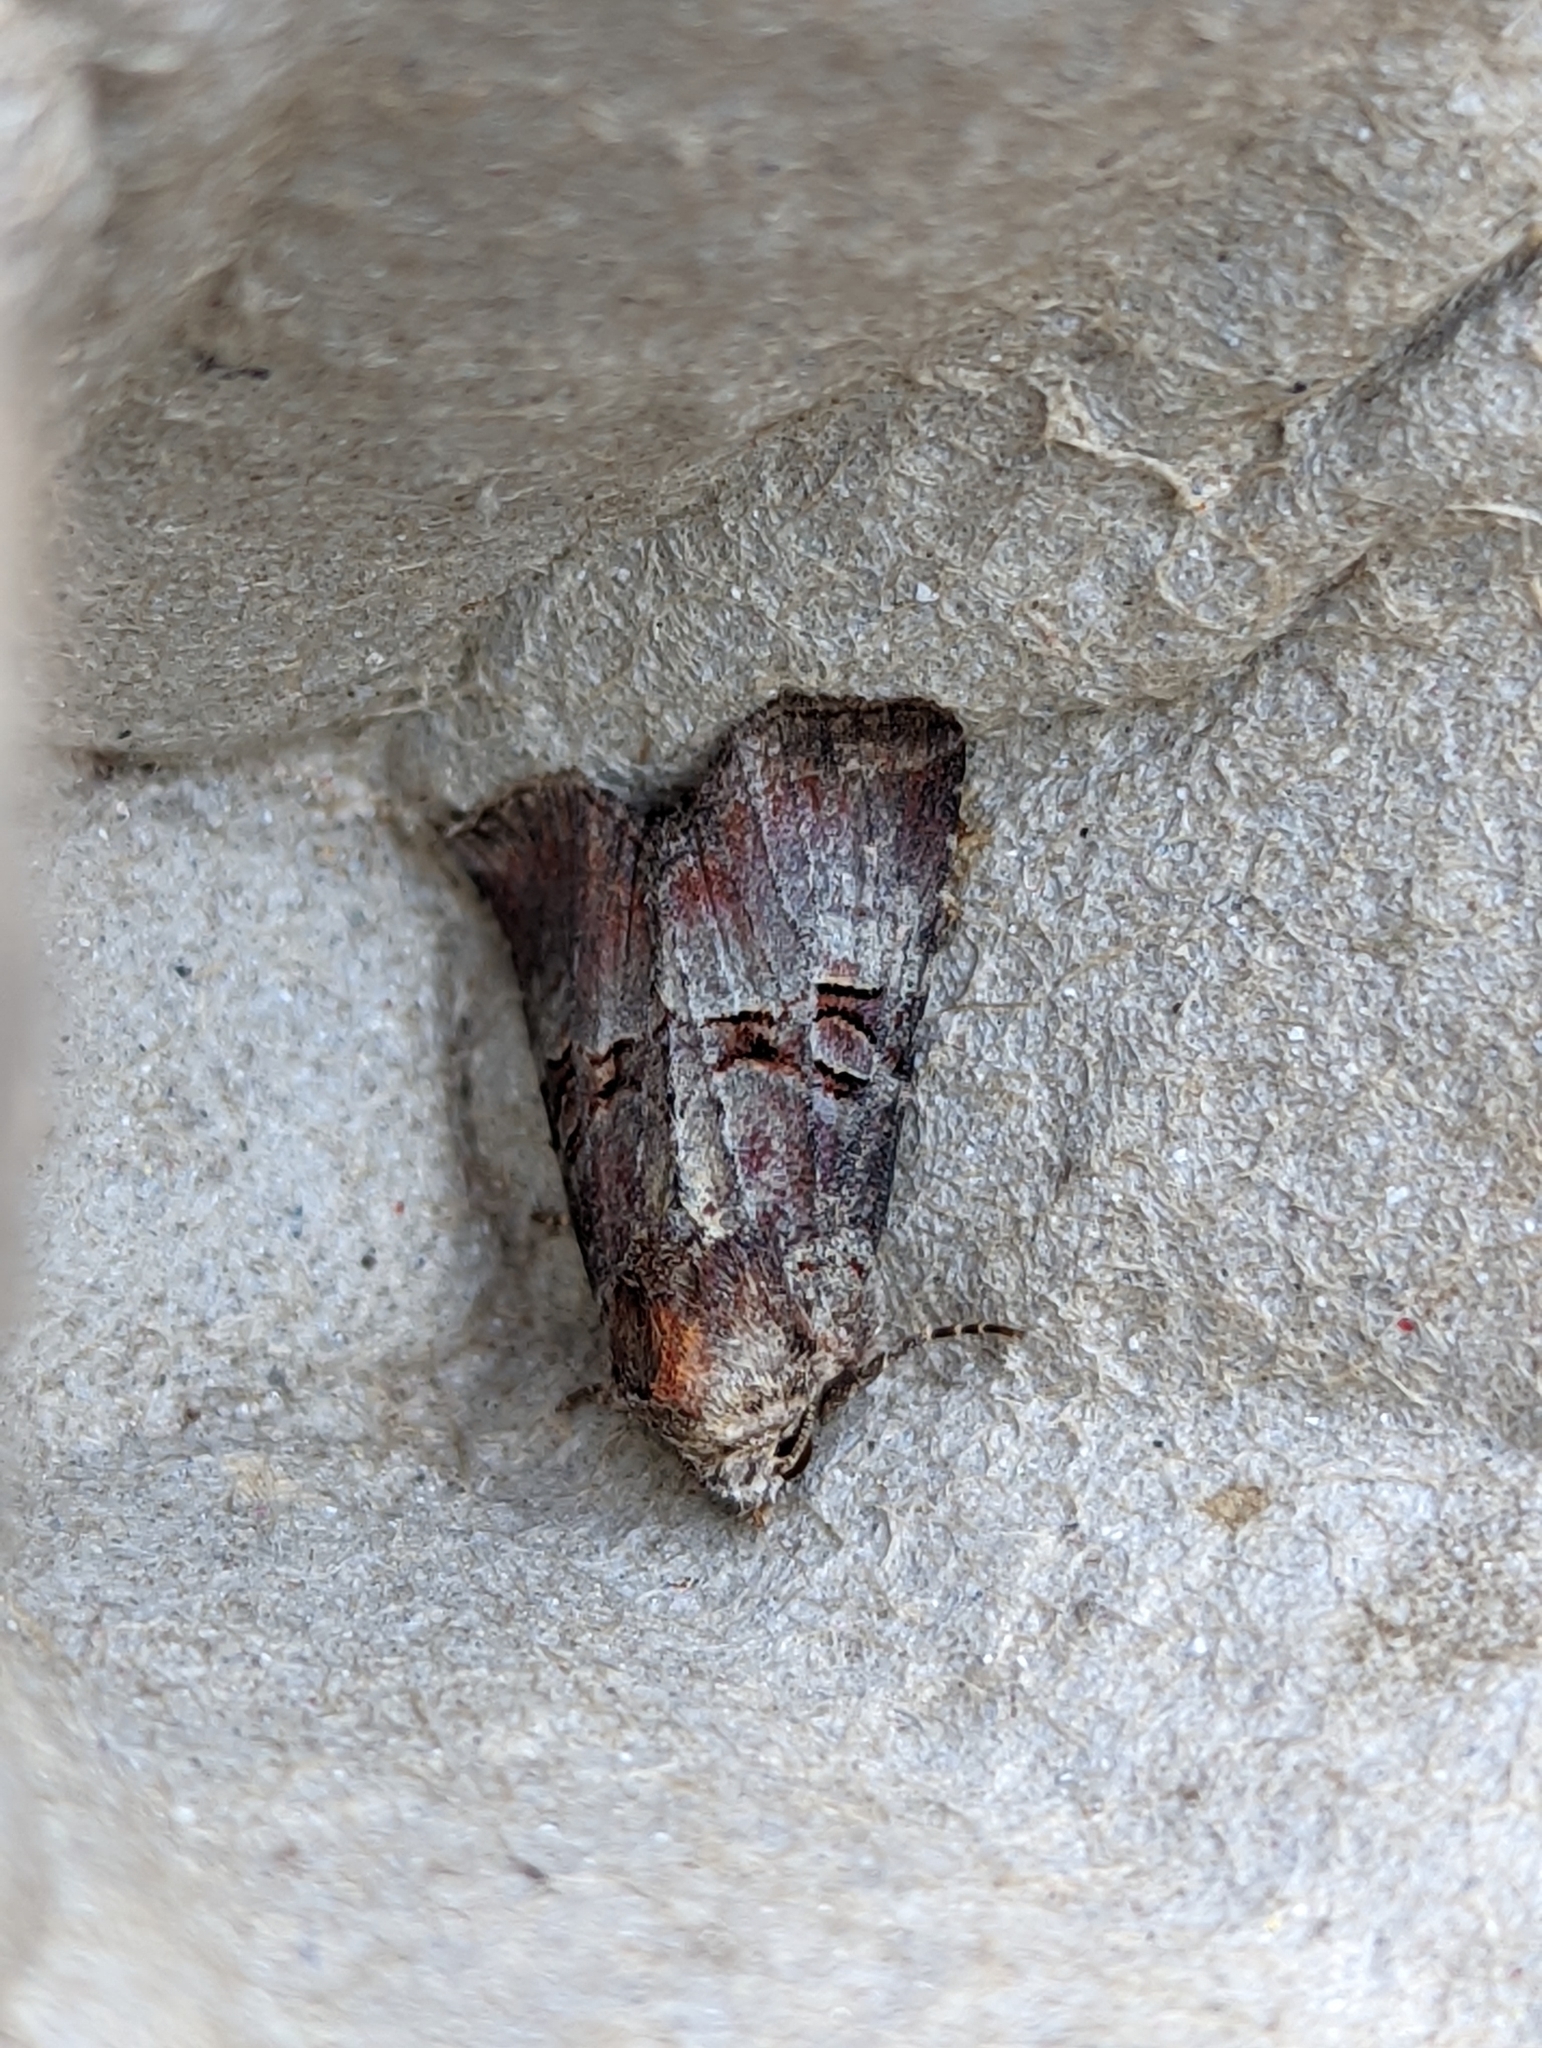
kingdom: Animalia
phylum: Arthropoda
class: Insecta
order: Lepidoptera
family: Noctuidae
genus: Litoligia
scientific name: Litoligia literosa
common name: Rosy minor
